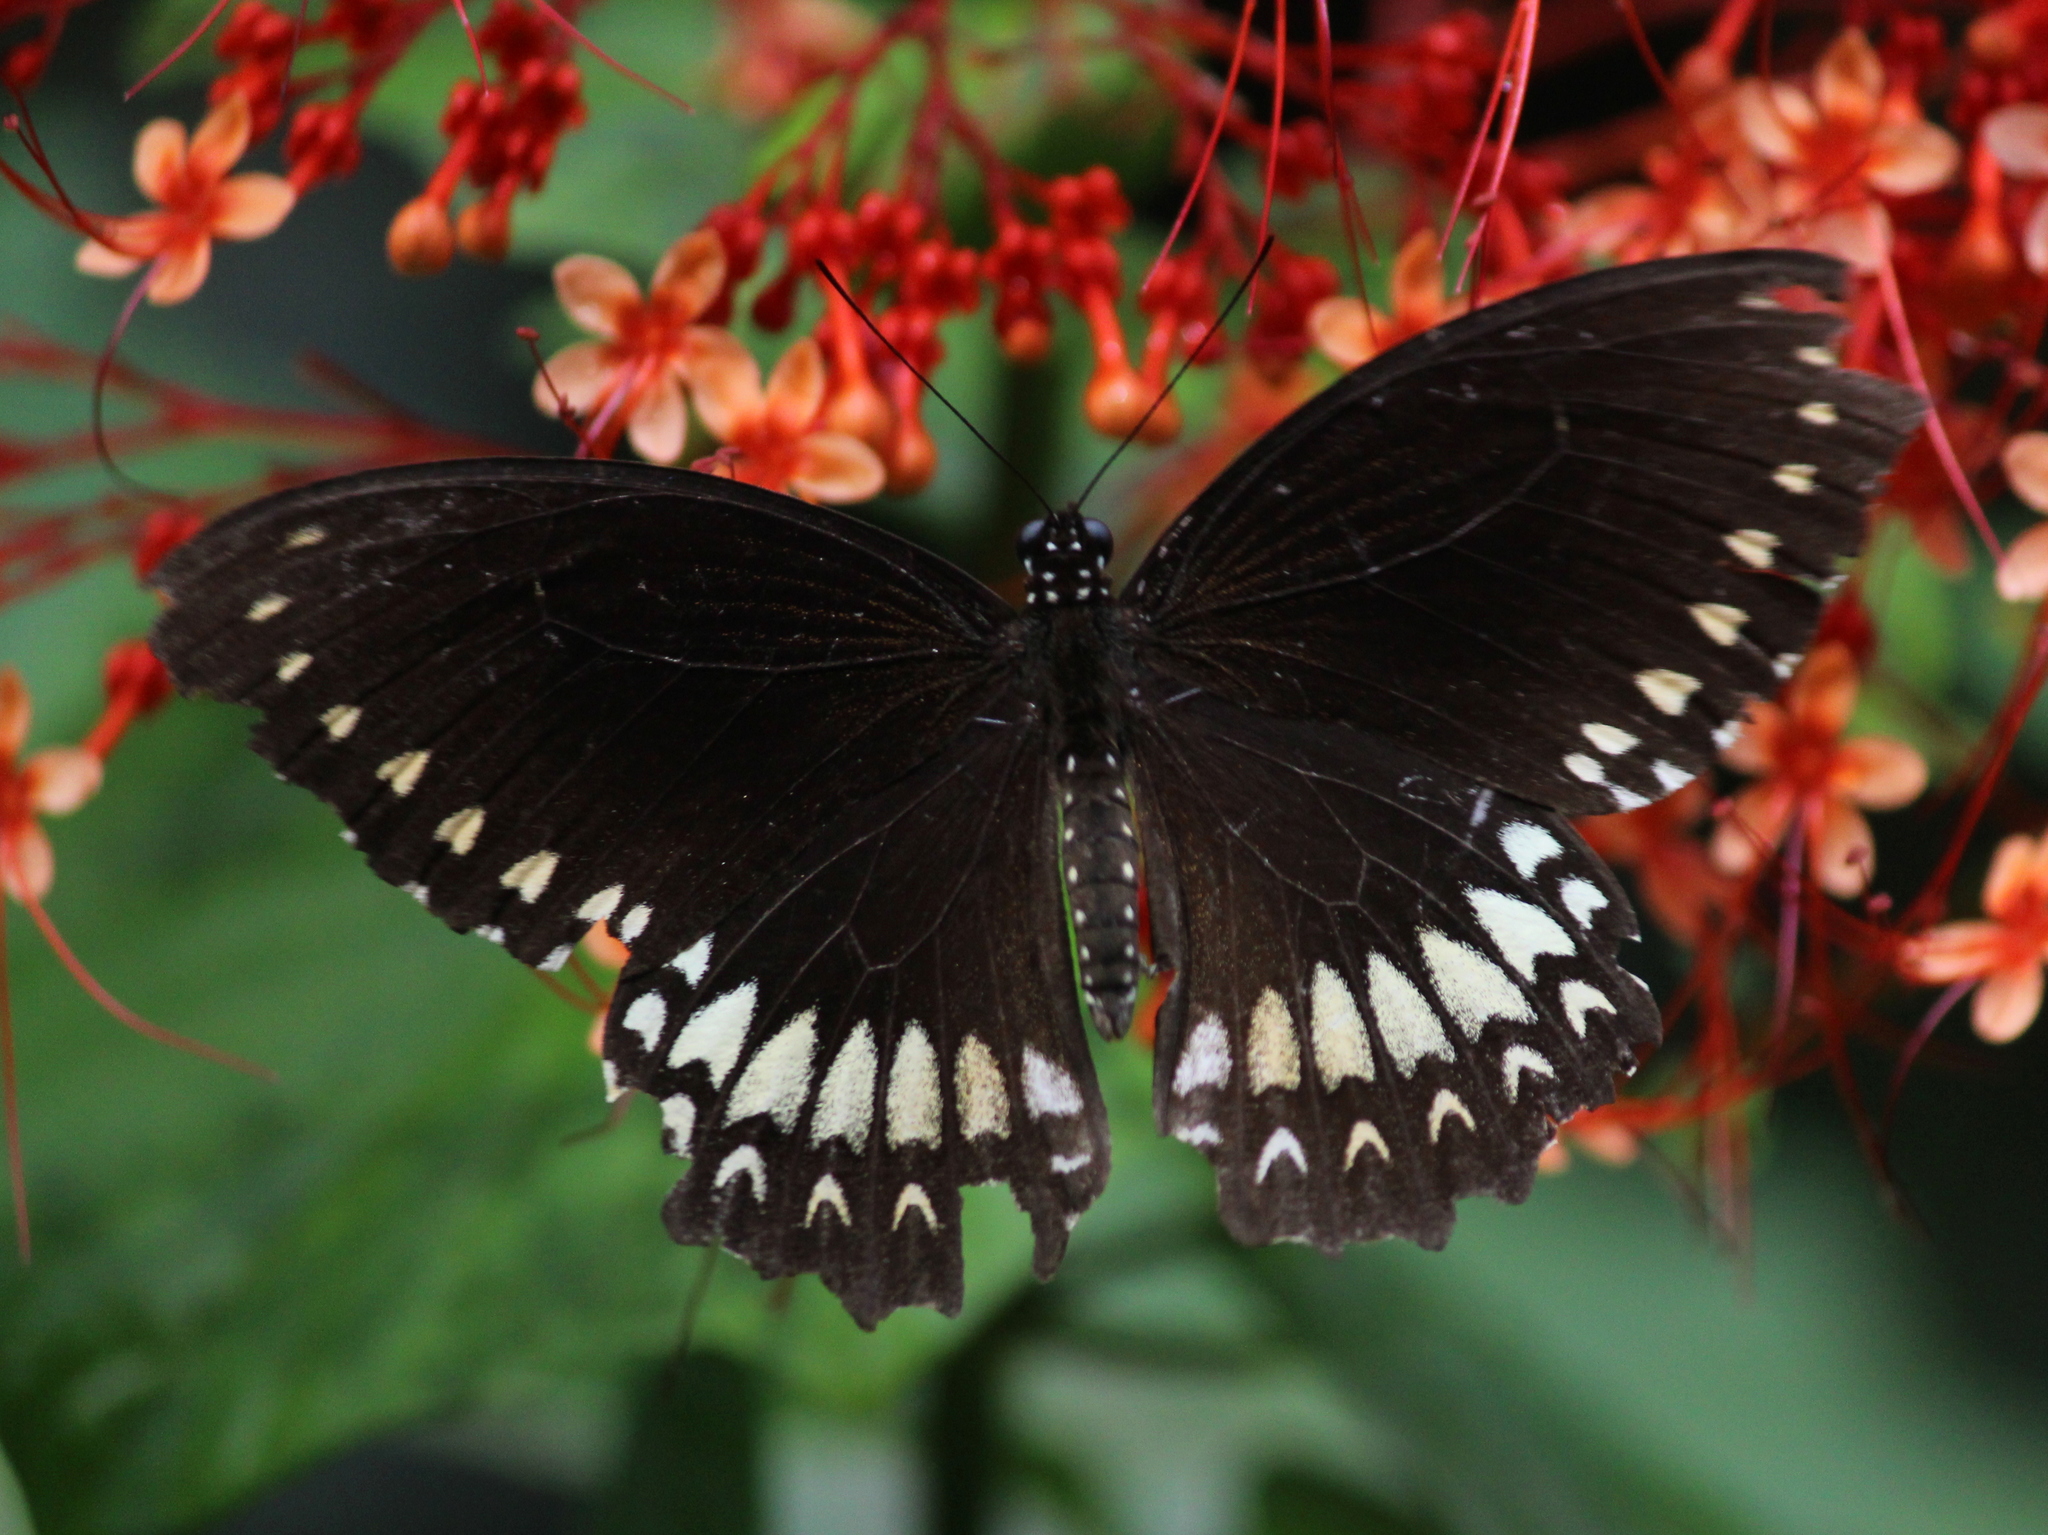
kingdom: Animalia
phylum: Arthropoda
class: Insecta
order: Lepidoptera
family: Papilionidae
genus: Papilio
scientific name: Papilio dravidarum
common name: Malabar raven
